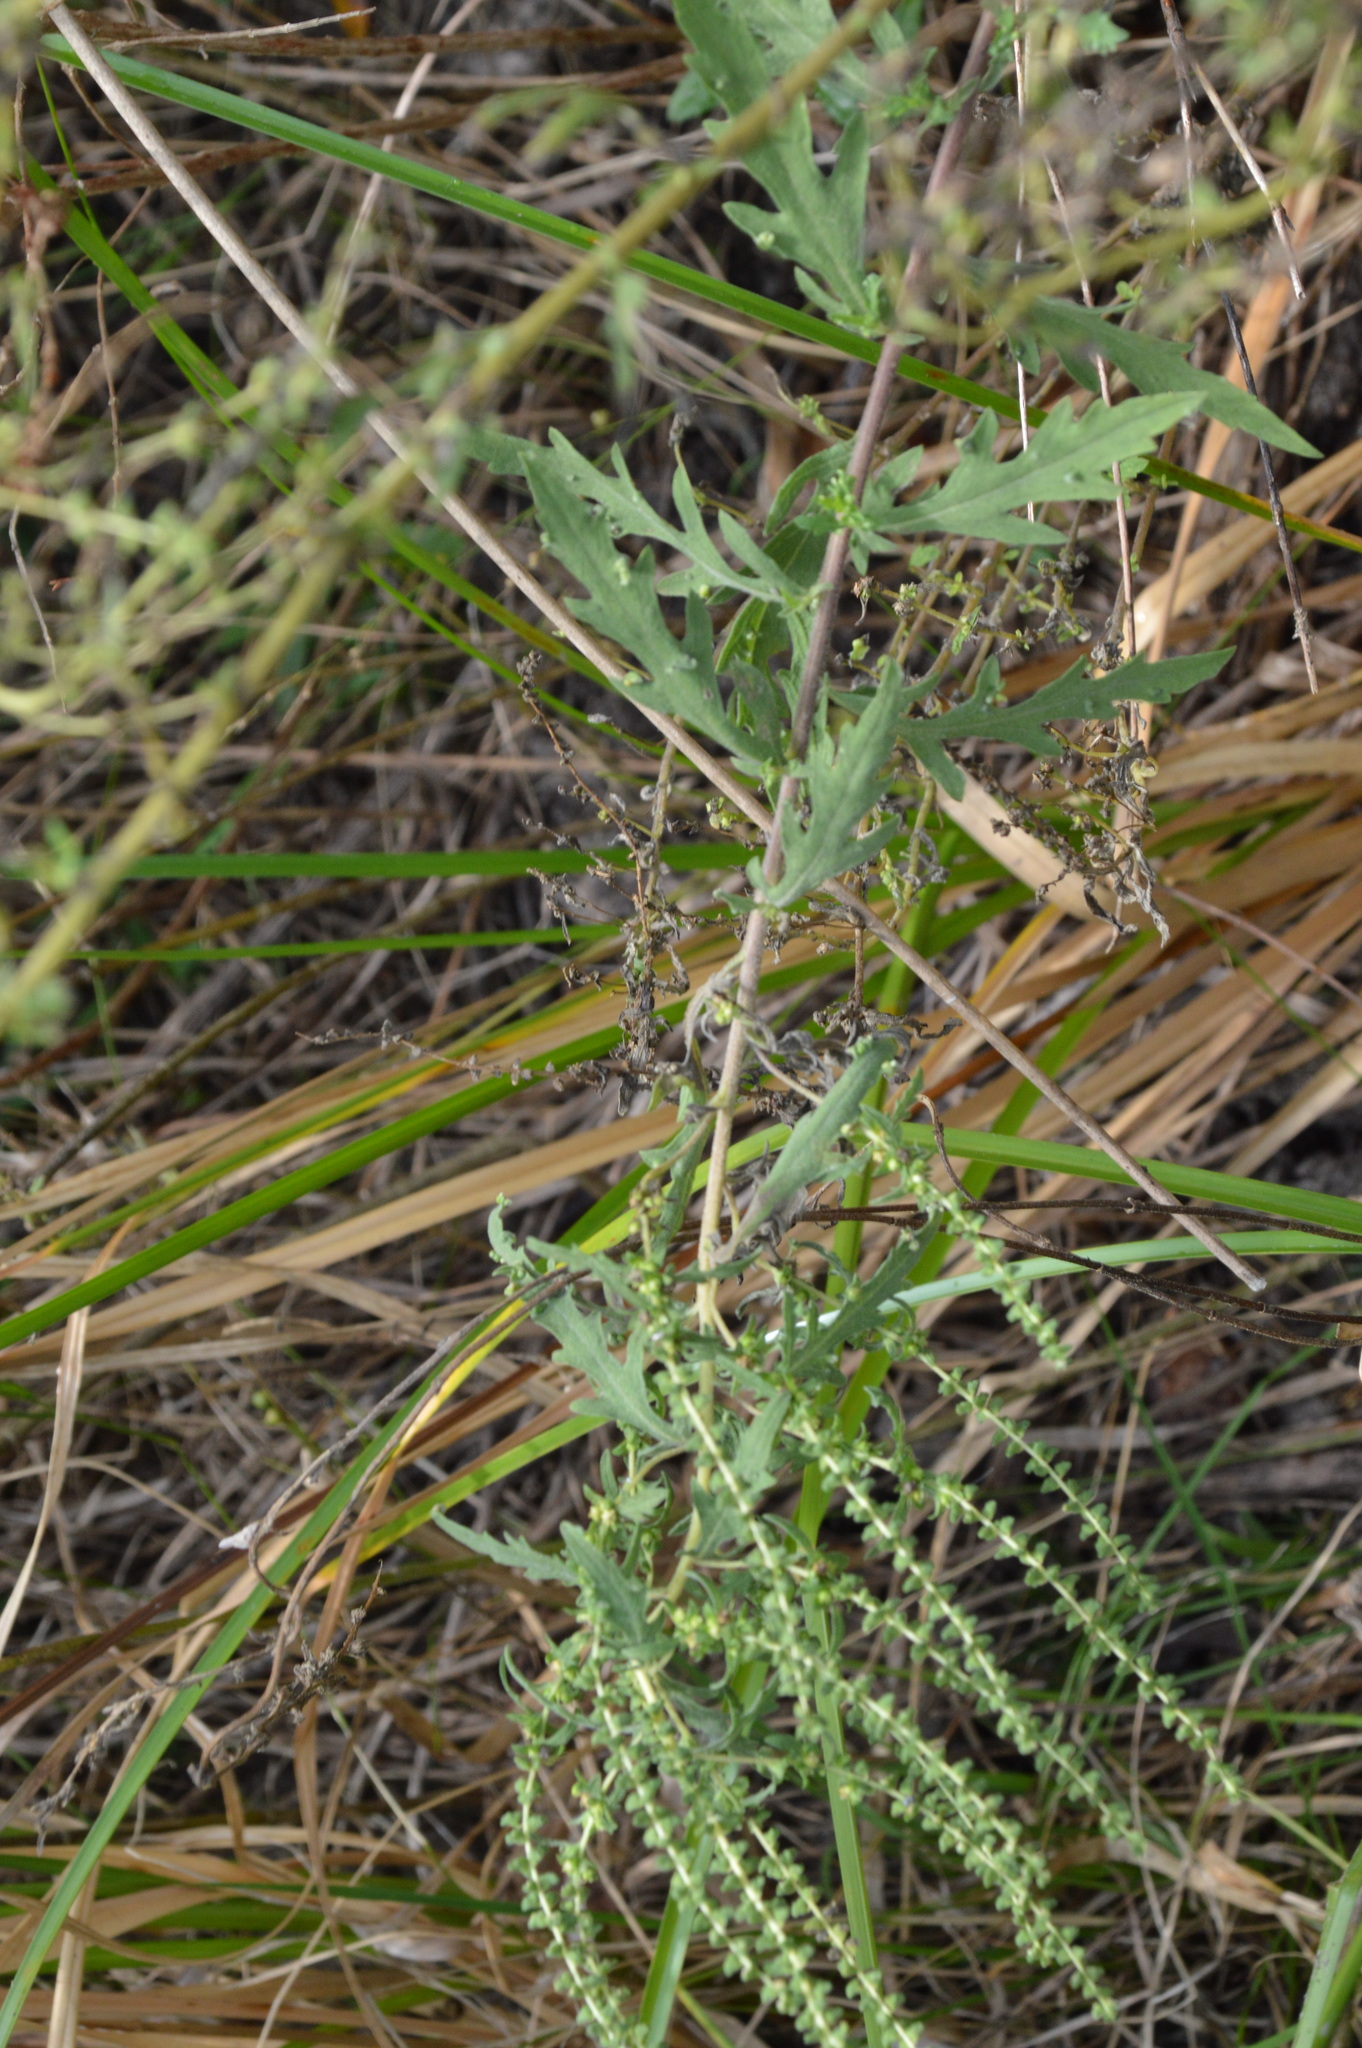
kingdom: Plantae
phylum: Tracheophyta
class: Magnoliopsida
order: Asterales
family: Asteraceae
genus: Ambrosia
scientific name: Ambrosia psilostachya
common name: Perennial ragweed
